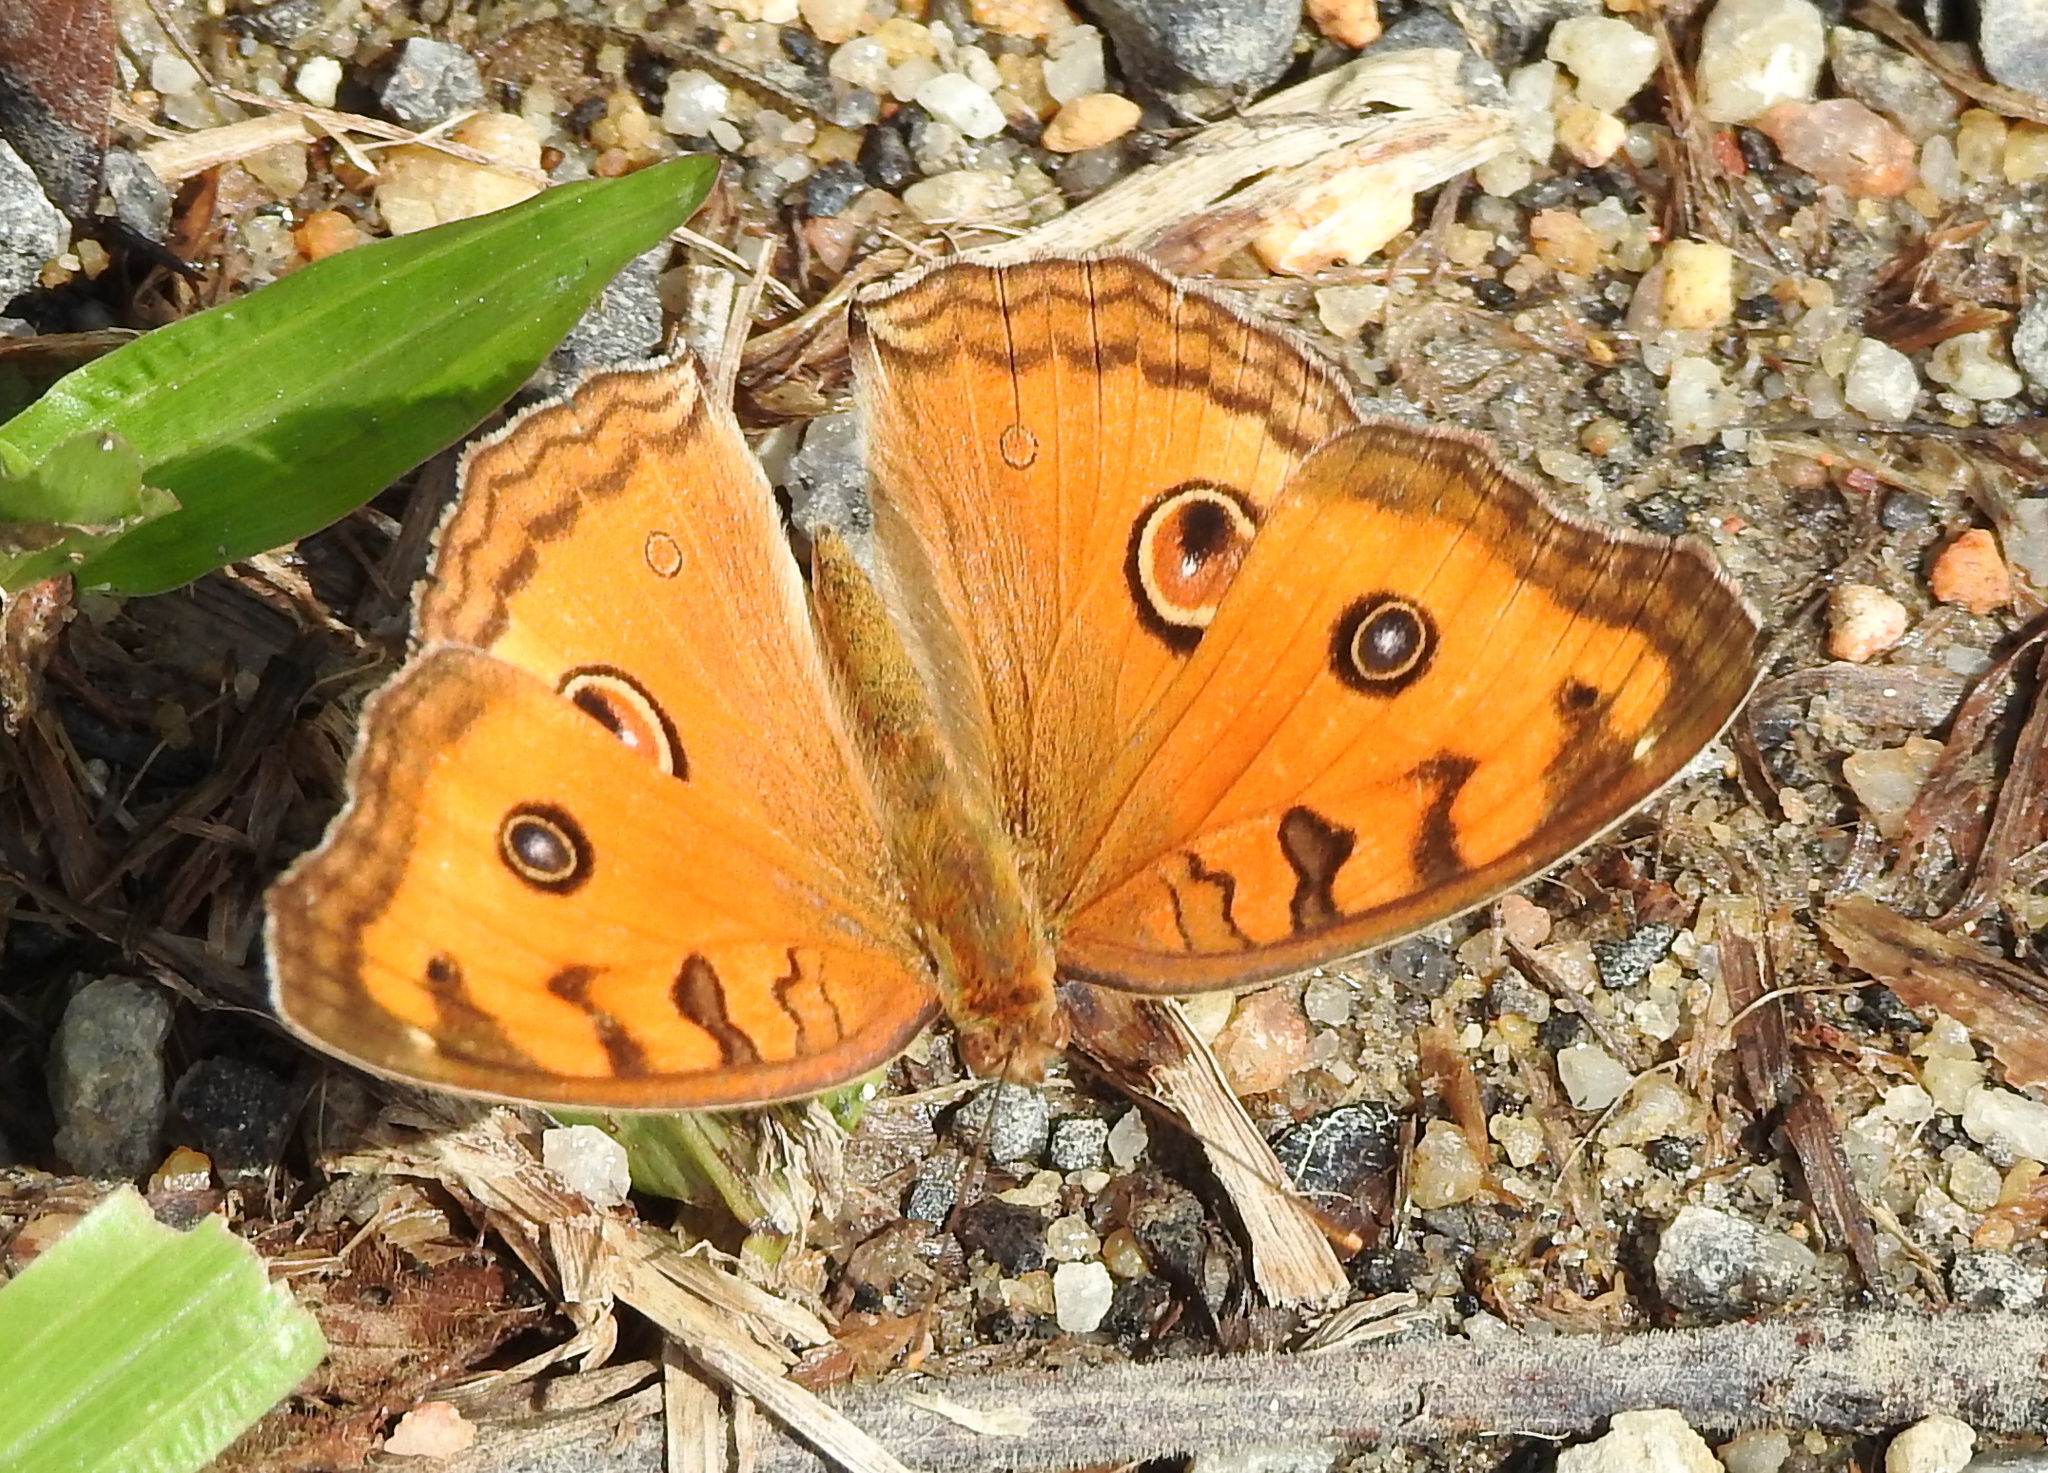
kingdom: Animalia
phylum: Arthropoda
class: Insecta
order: Lepidoptera
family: Nymphalidae
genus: Junonia
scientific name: Junonia almana
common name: Peacock pansy
